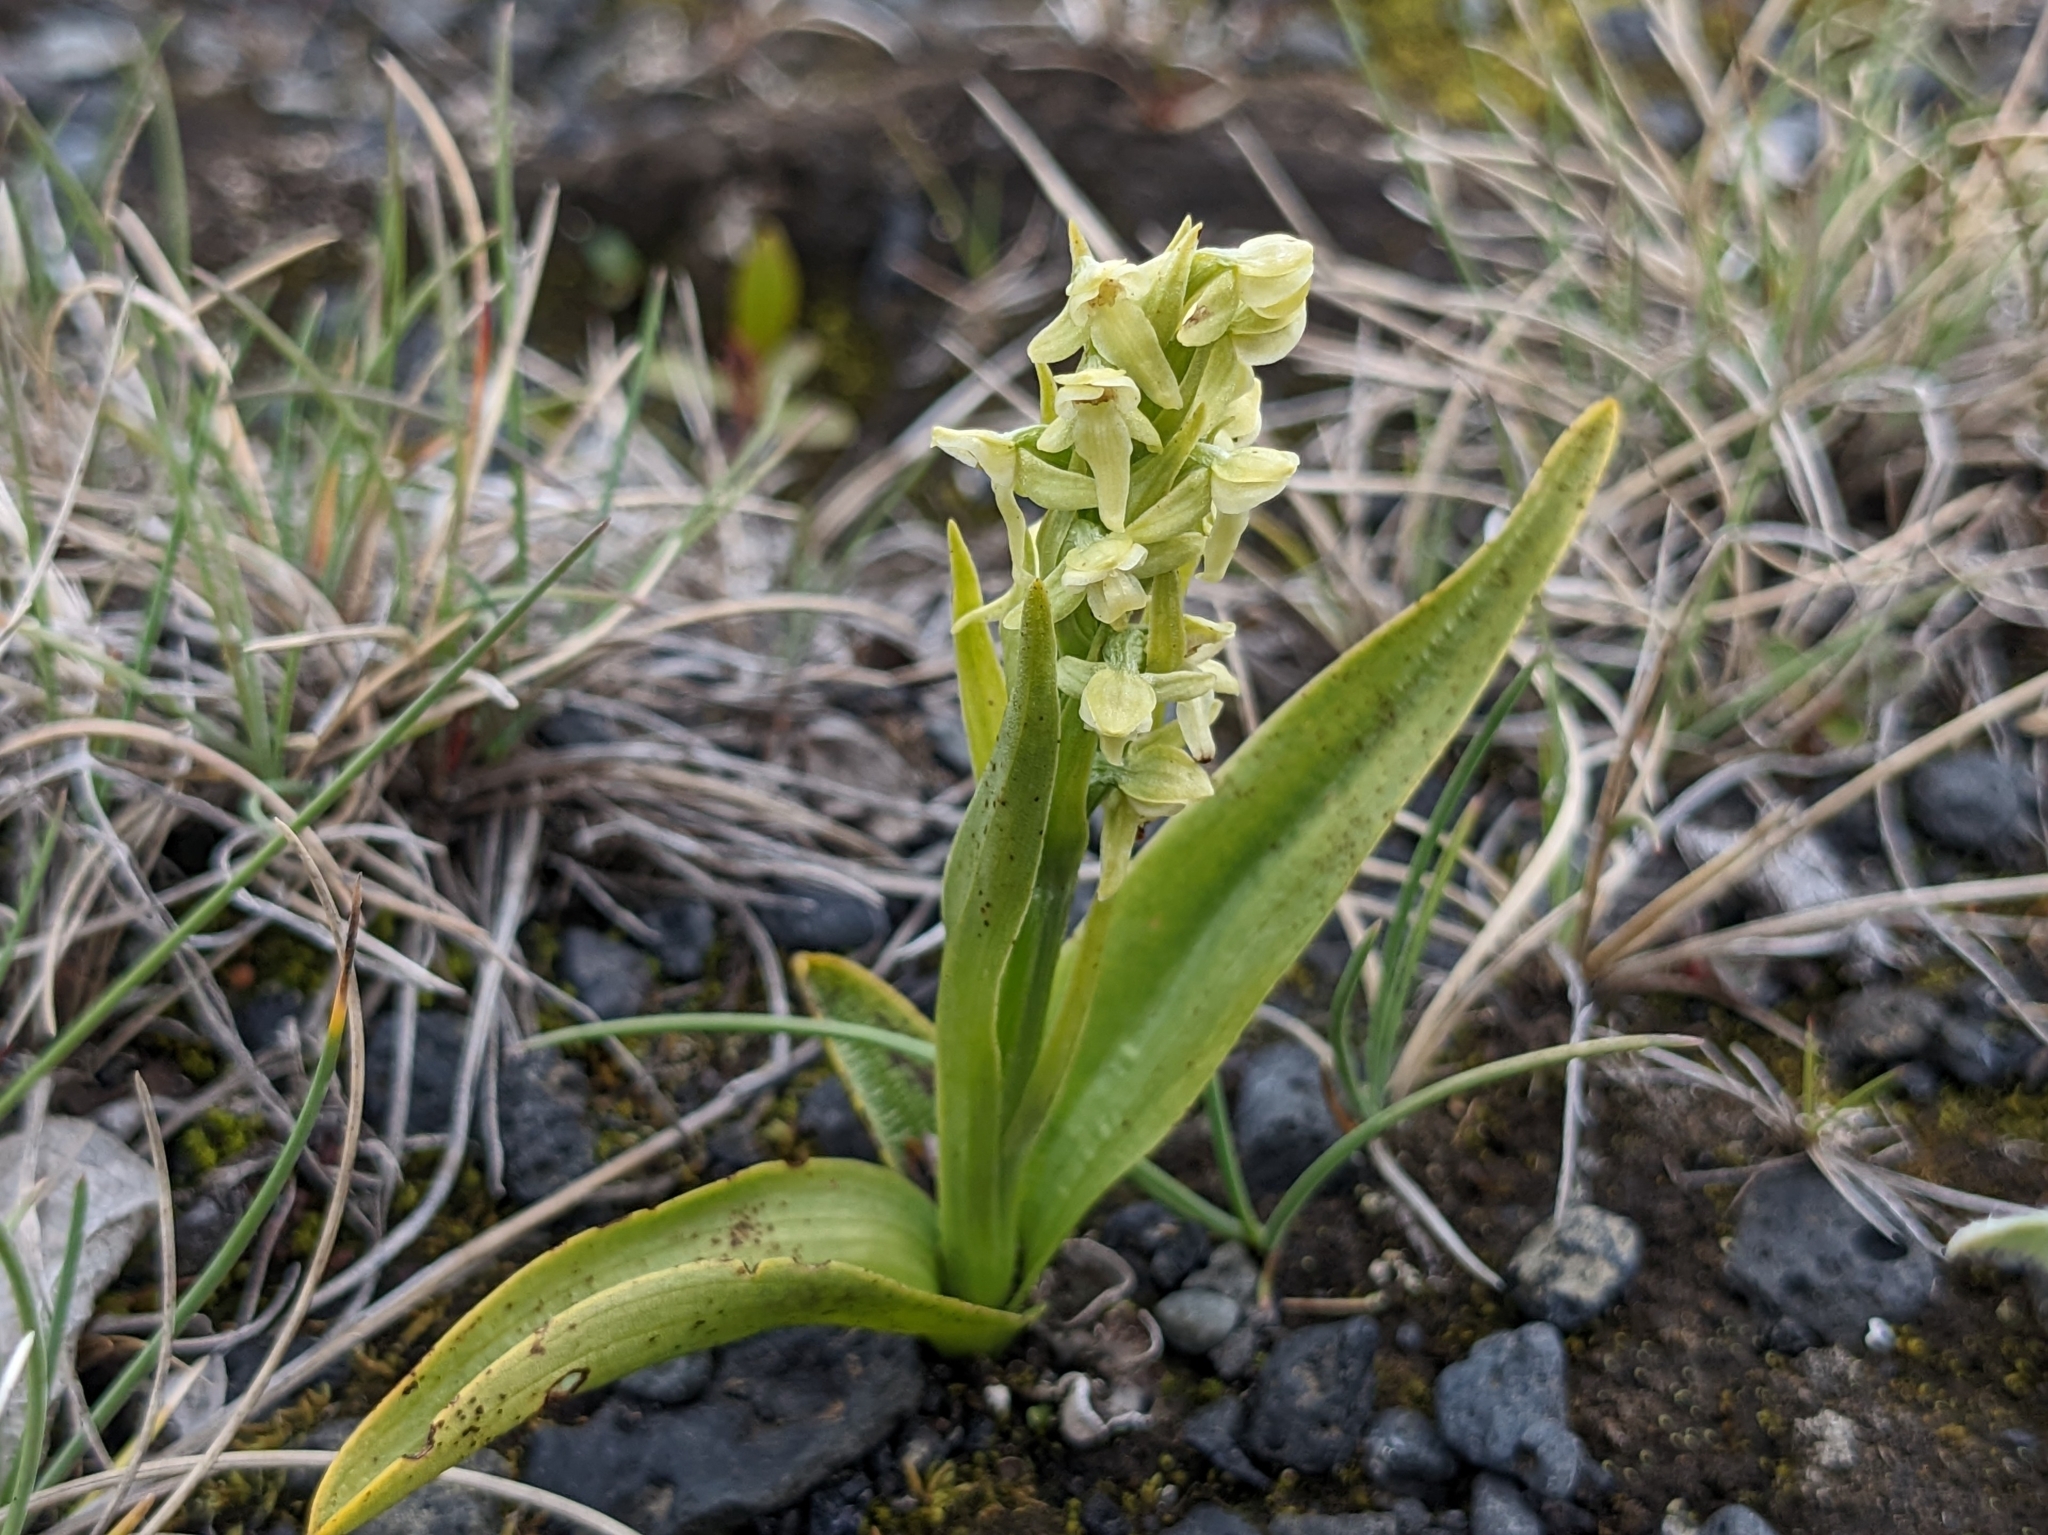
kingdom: Plantae
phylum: Tracheophyta
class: Liliopsida
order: Asparagales
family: Orchidaceae
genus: Platanthera
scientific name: Platanthera hyperborea
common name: Northern green orchid
